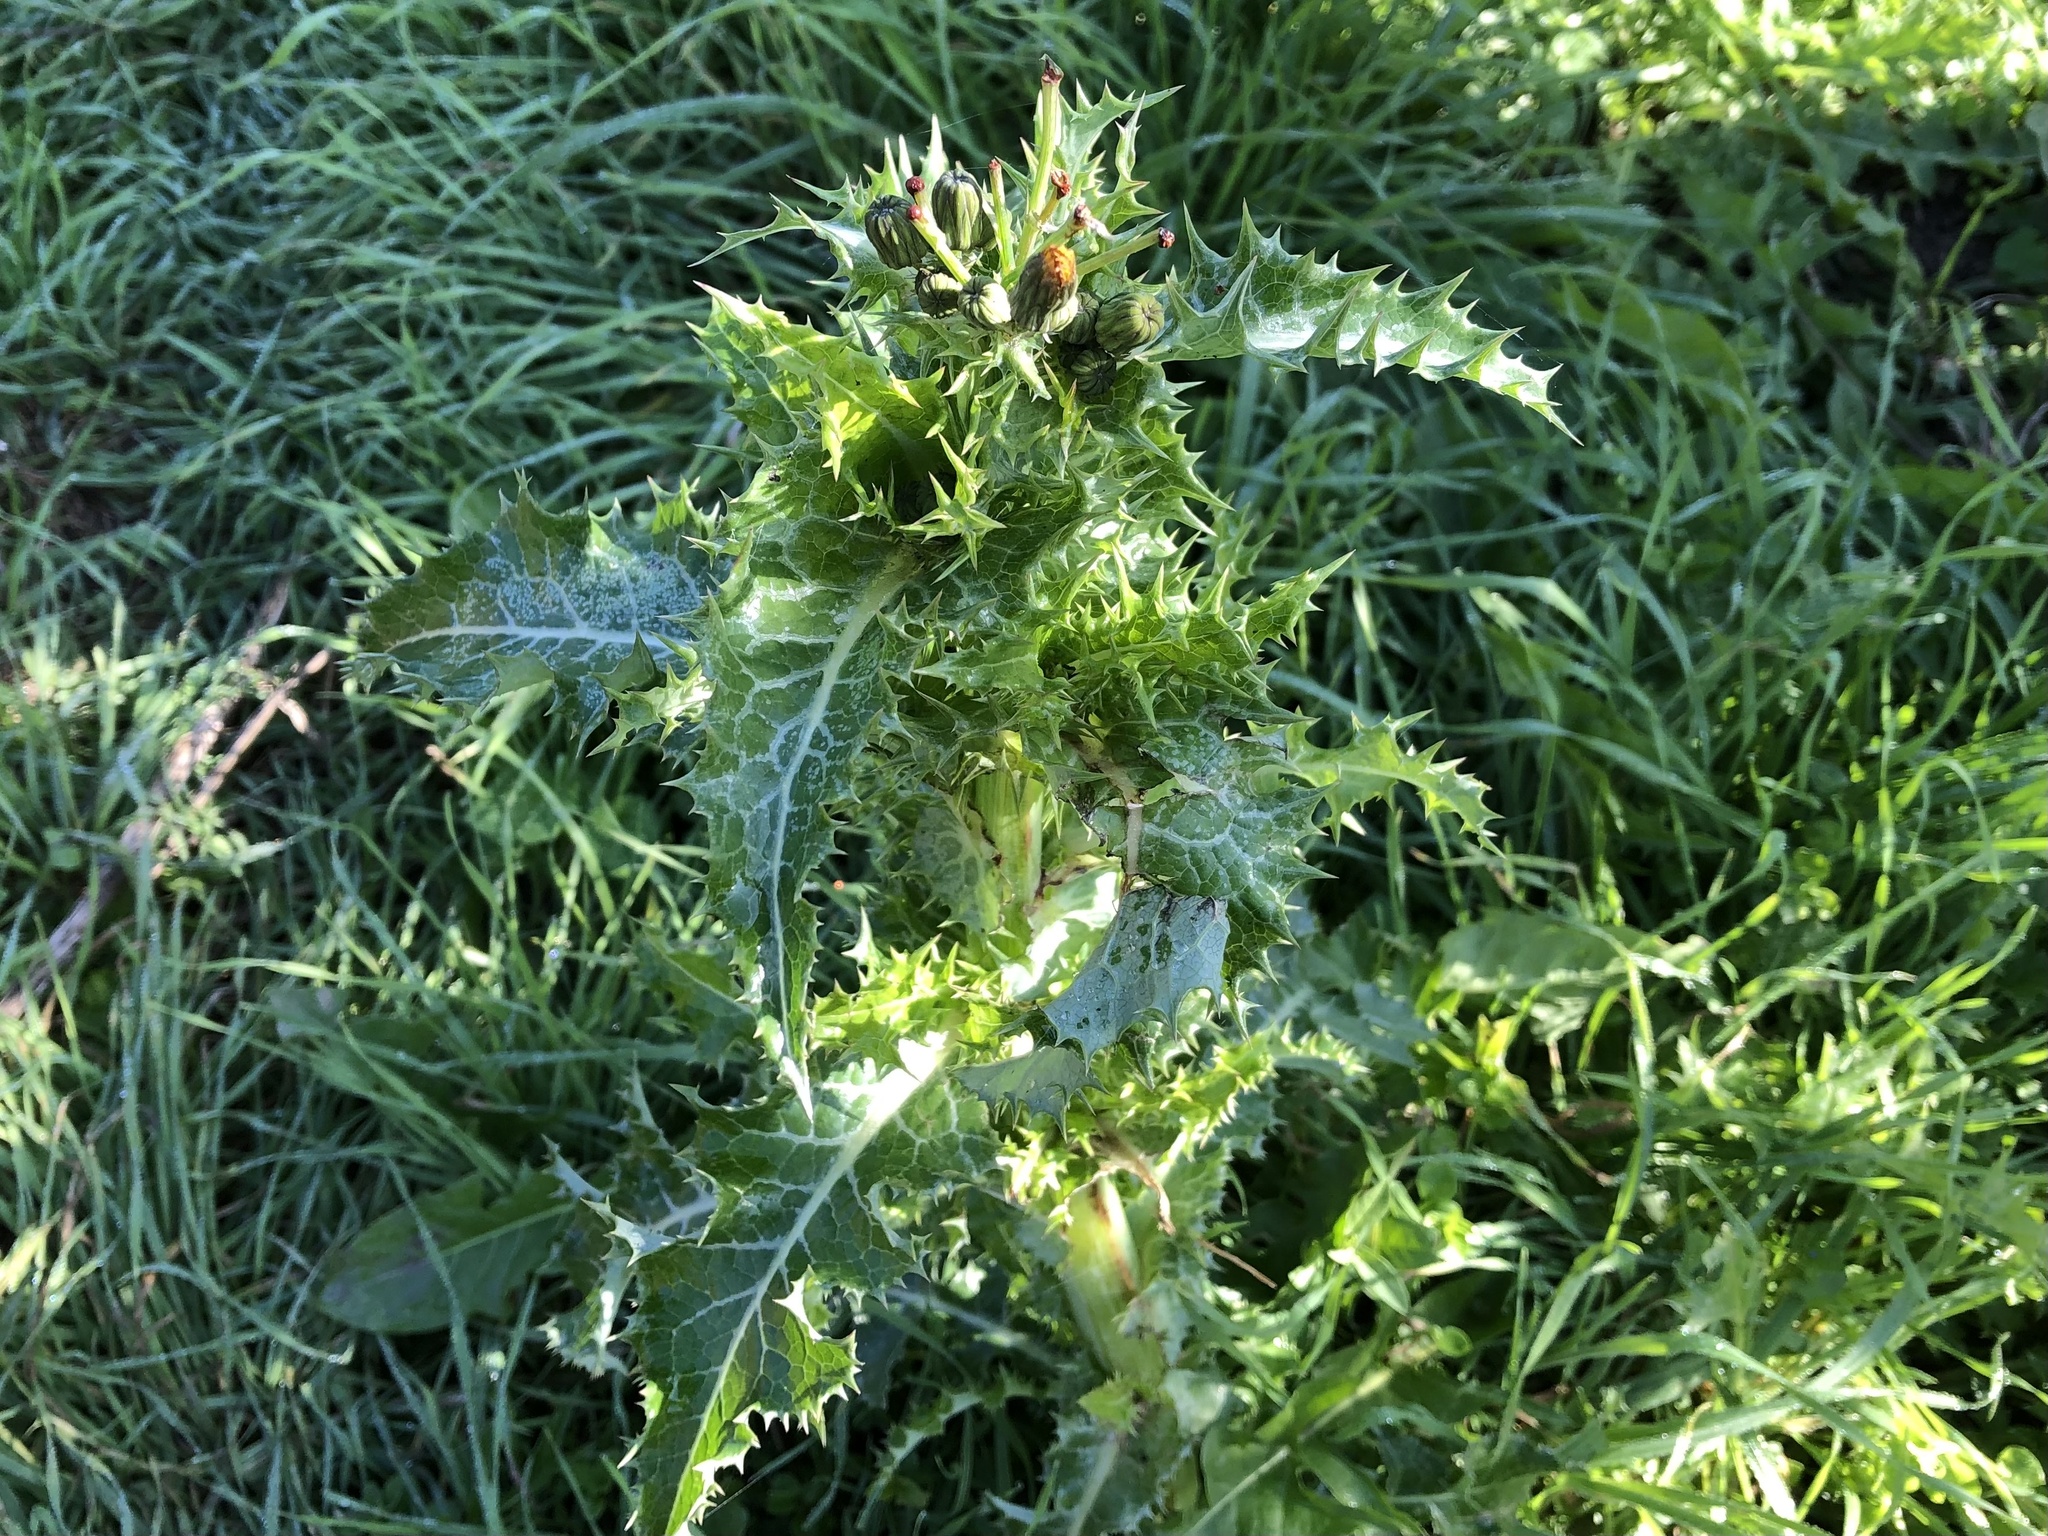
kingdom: Plantae
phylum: Tracheophyta
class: Magnoliopsida
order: Asterales
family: Asteraceae
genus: Sonchus
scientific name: Sonchus asper
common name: Prickly sow-thistle
